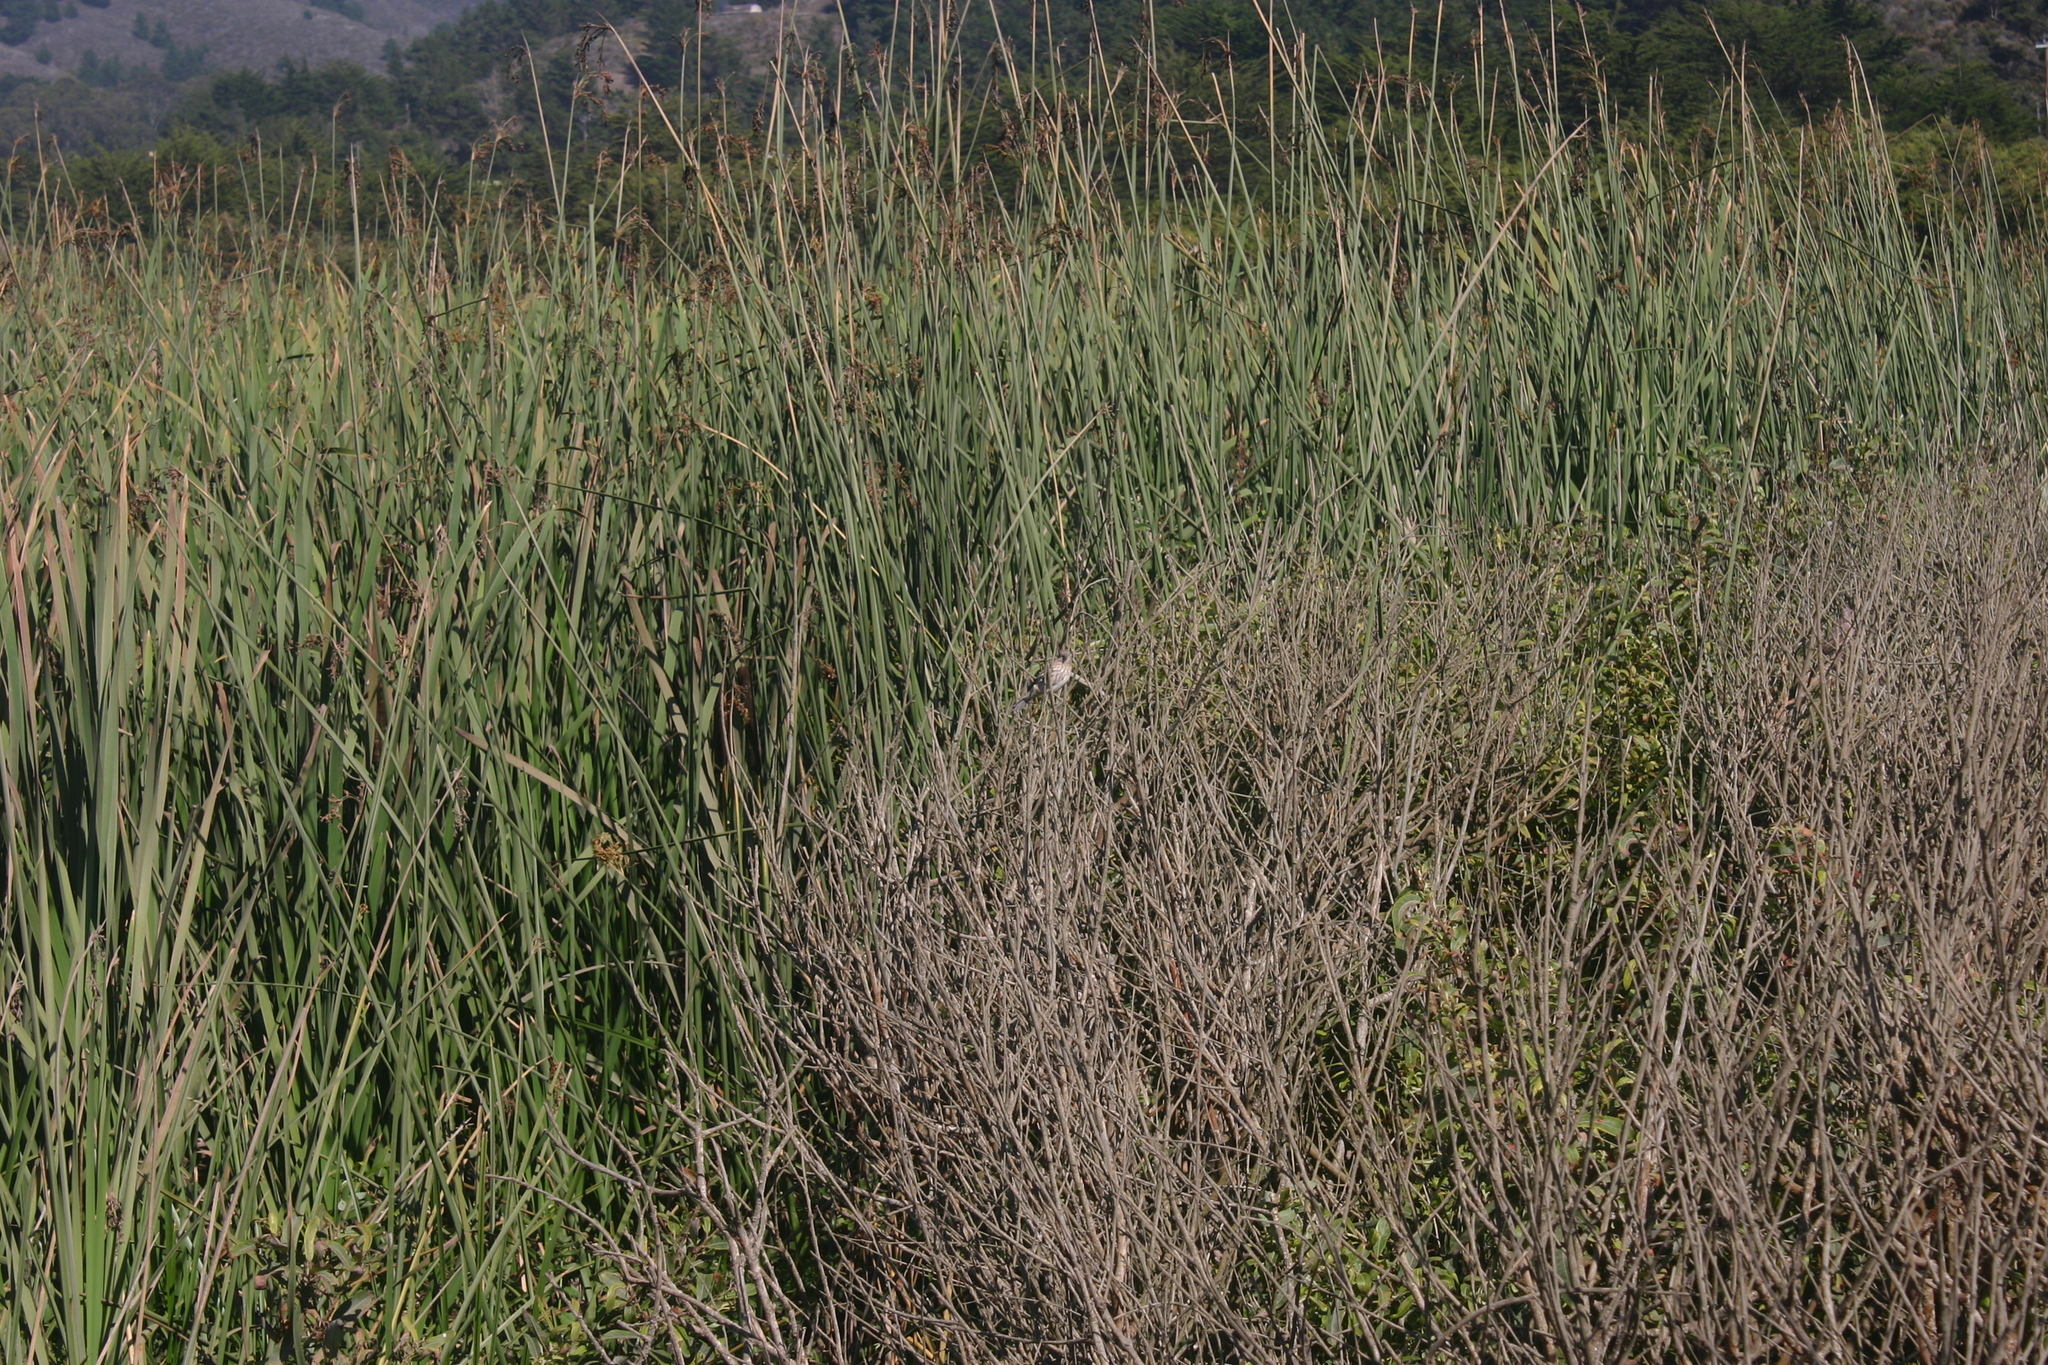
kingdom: Animalia
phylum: Chordata
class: Aves
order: Passeriformes
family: Fringillidae
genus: Haemorhous
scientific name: Haemorhous mexicanus
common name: House finch
